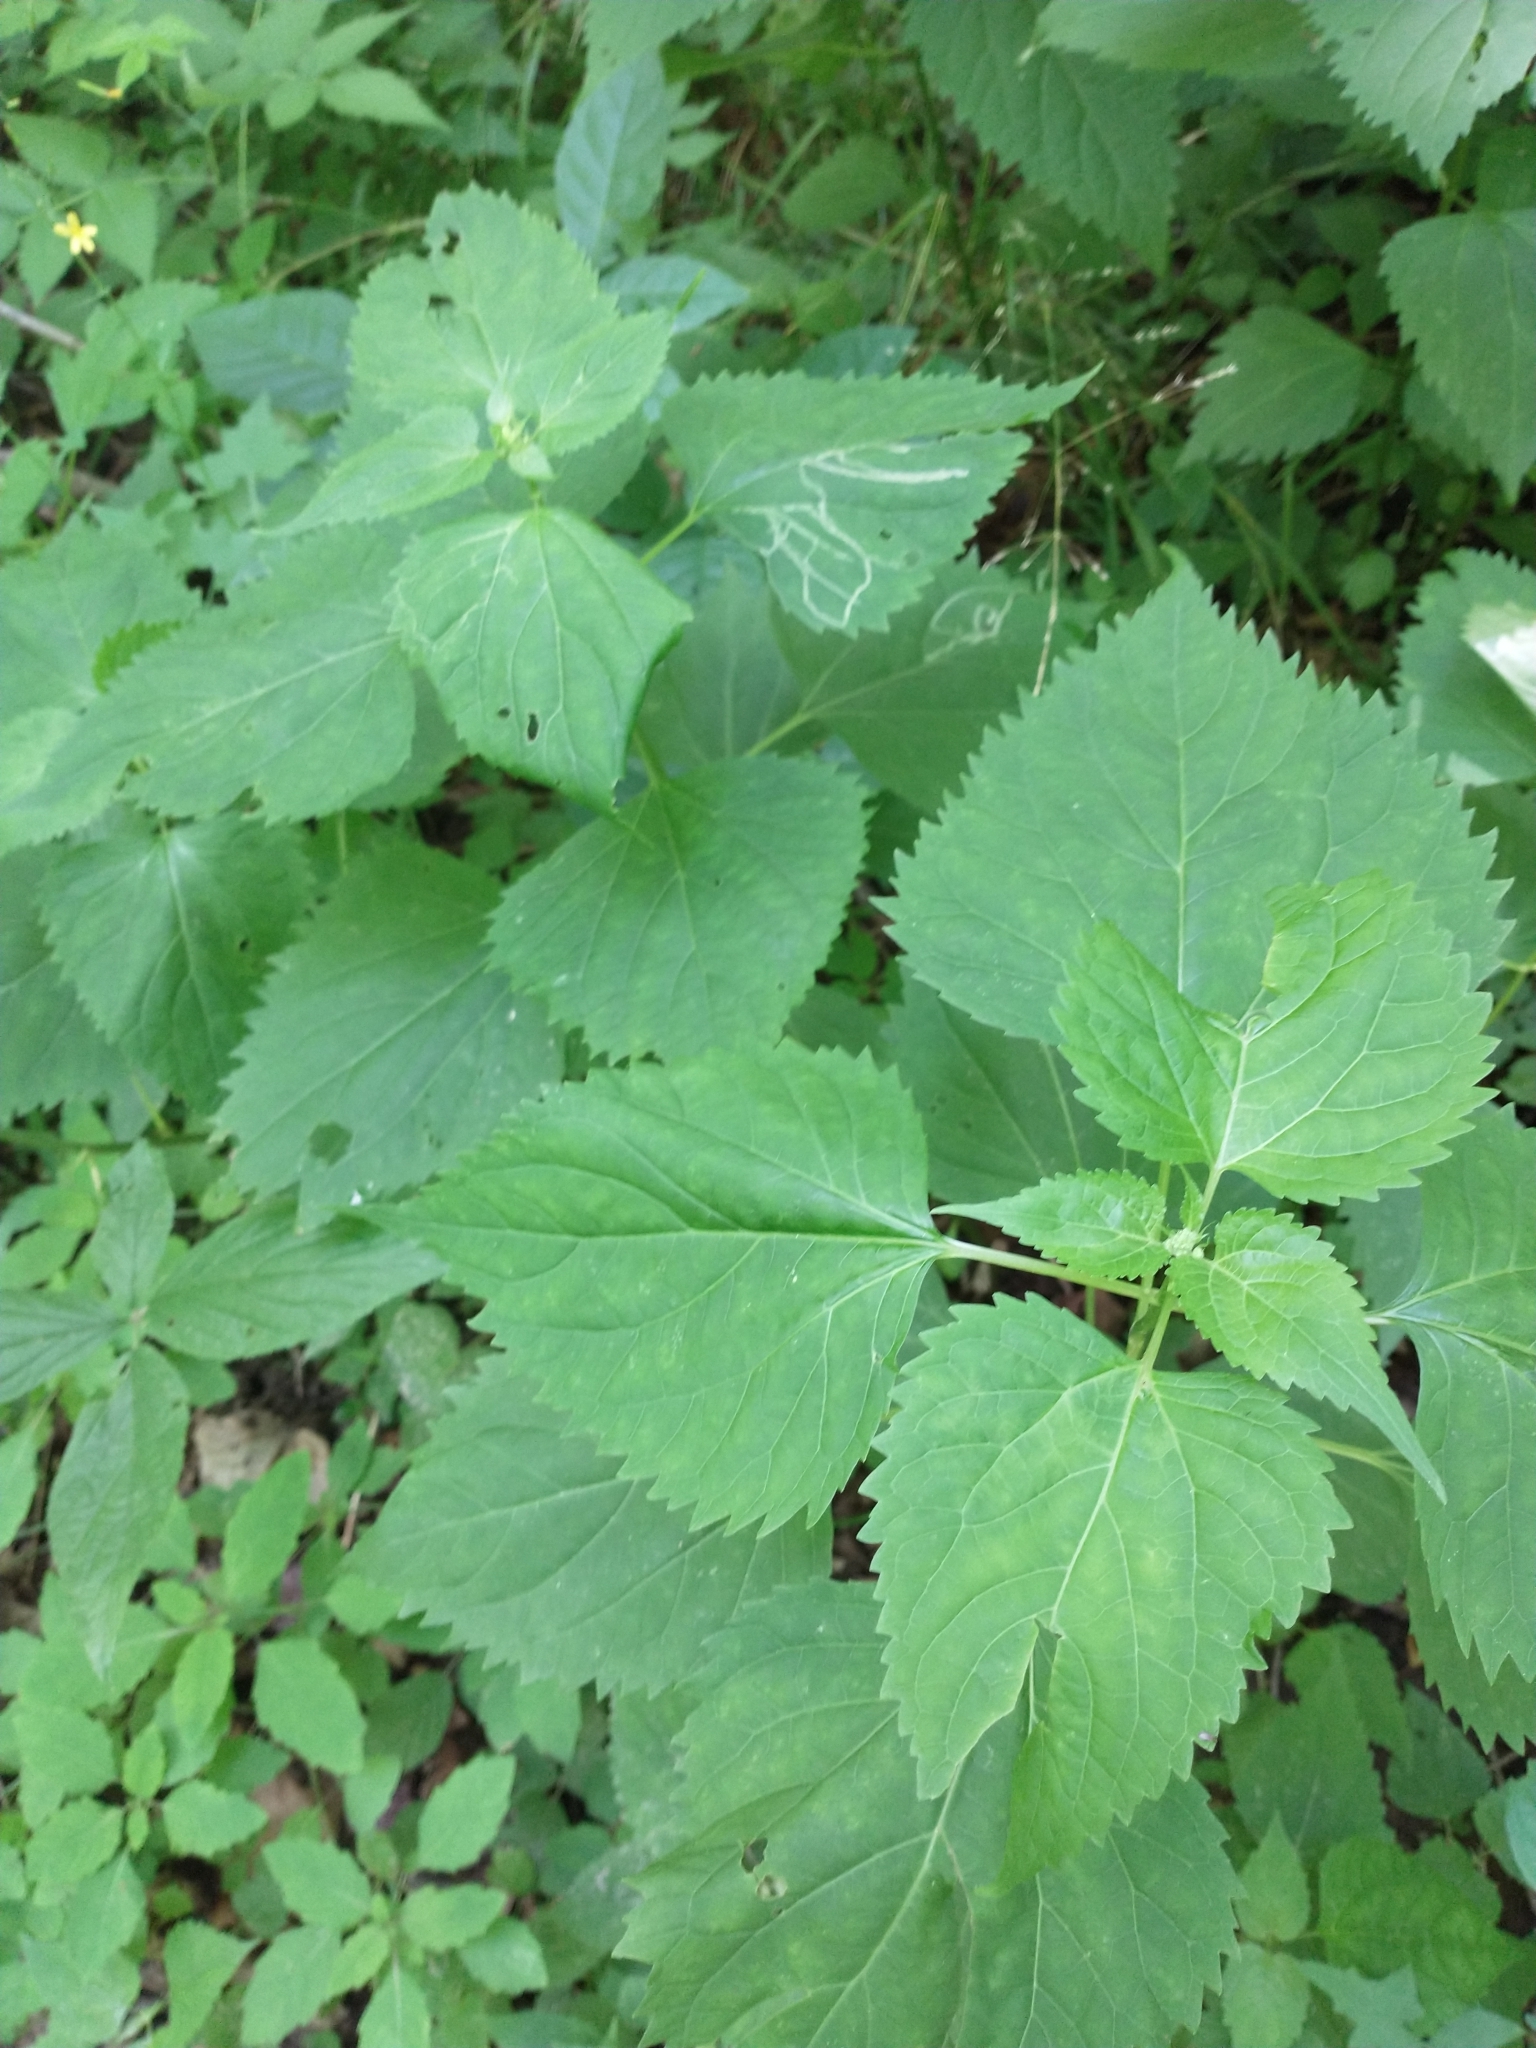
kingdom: Plantae
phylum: Tracheophyta
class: Magnoliopsida
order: Asterales
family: Asteraceae
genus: Ageratina
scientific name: Ageratina altissima
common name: White snakeroot
